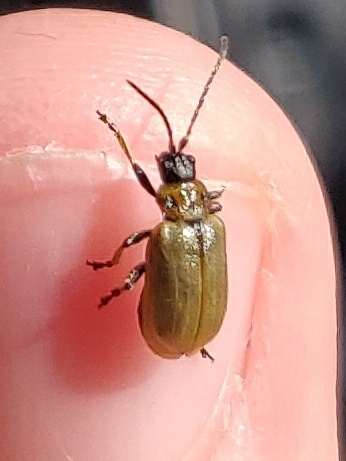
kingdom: Animalia
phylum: Arthropoda
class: Insecta
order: Coleoptera
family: Chrysomelidae
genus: Lochmaea
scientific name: Lochmaea caprea
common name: Willow leaf beetle
